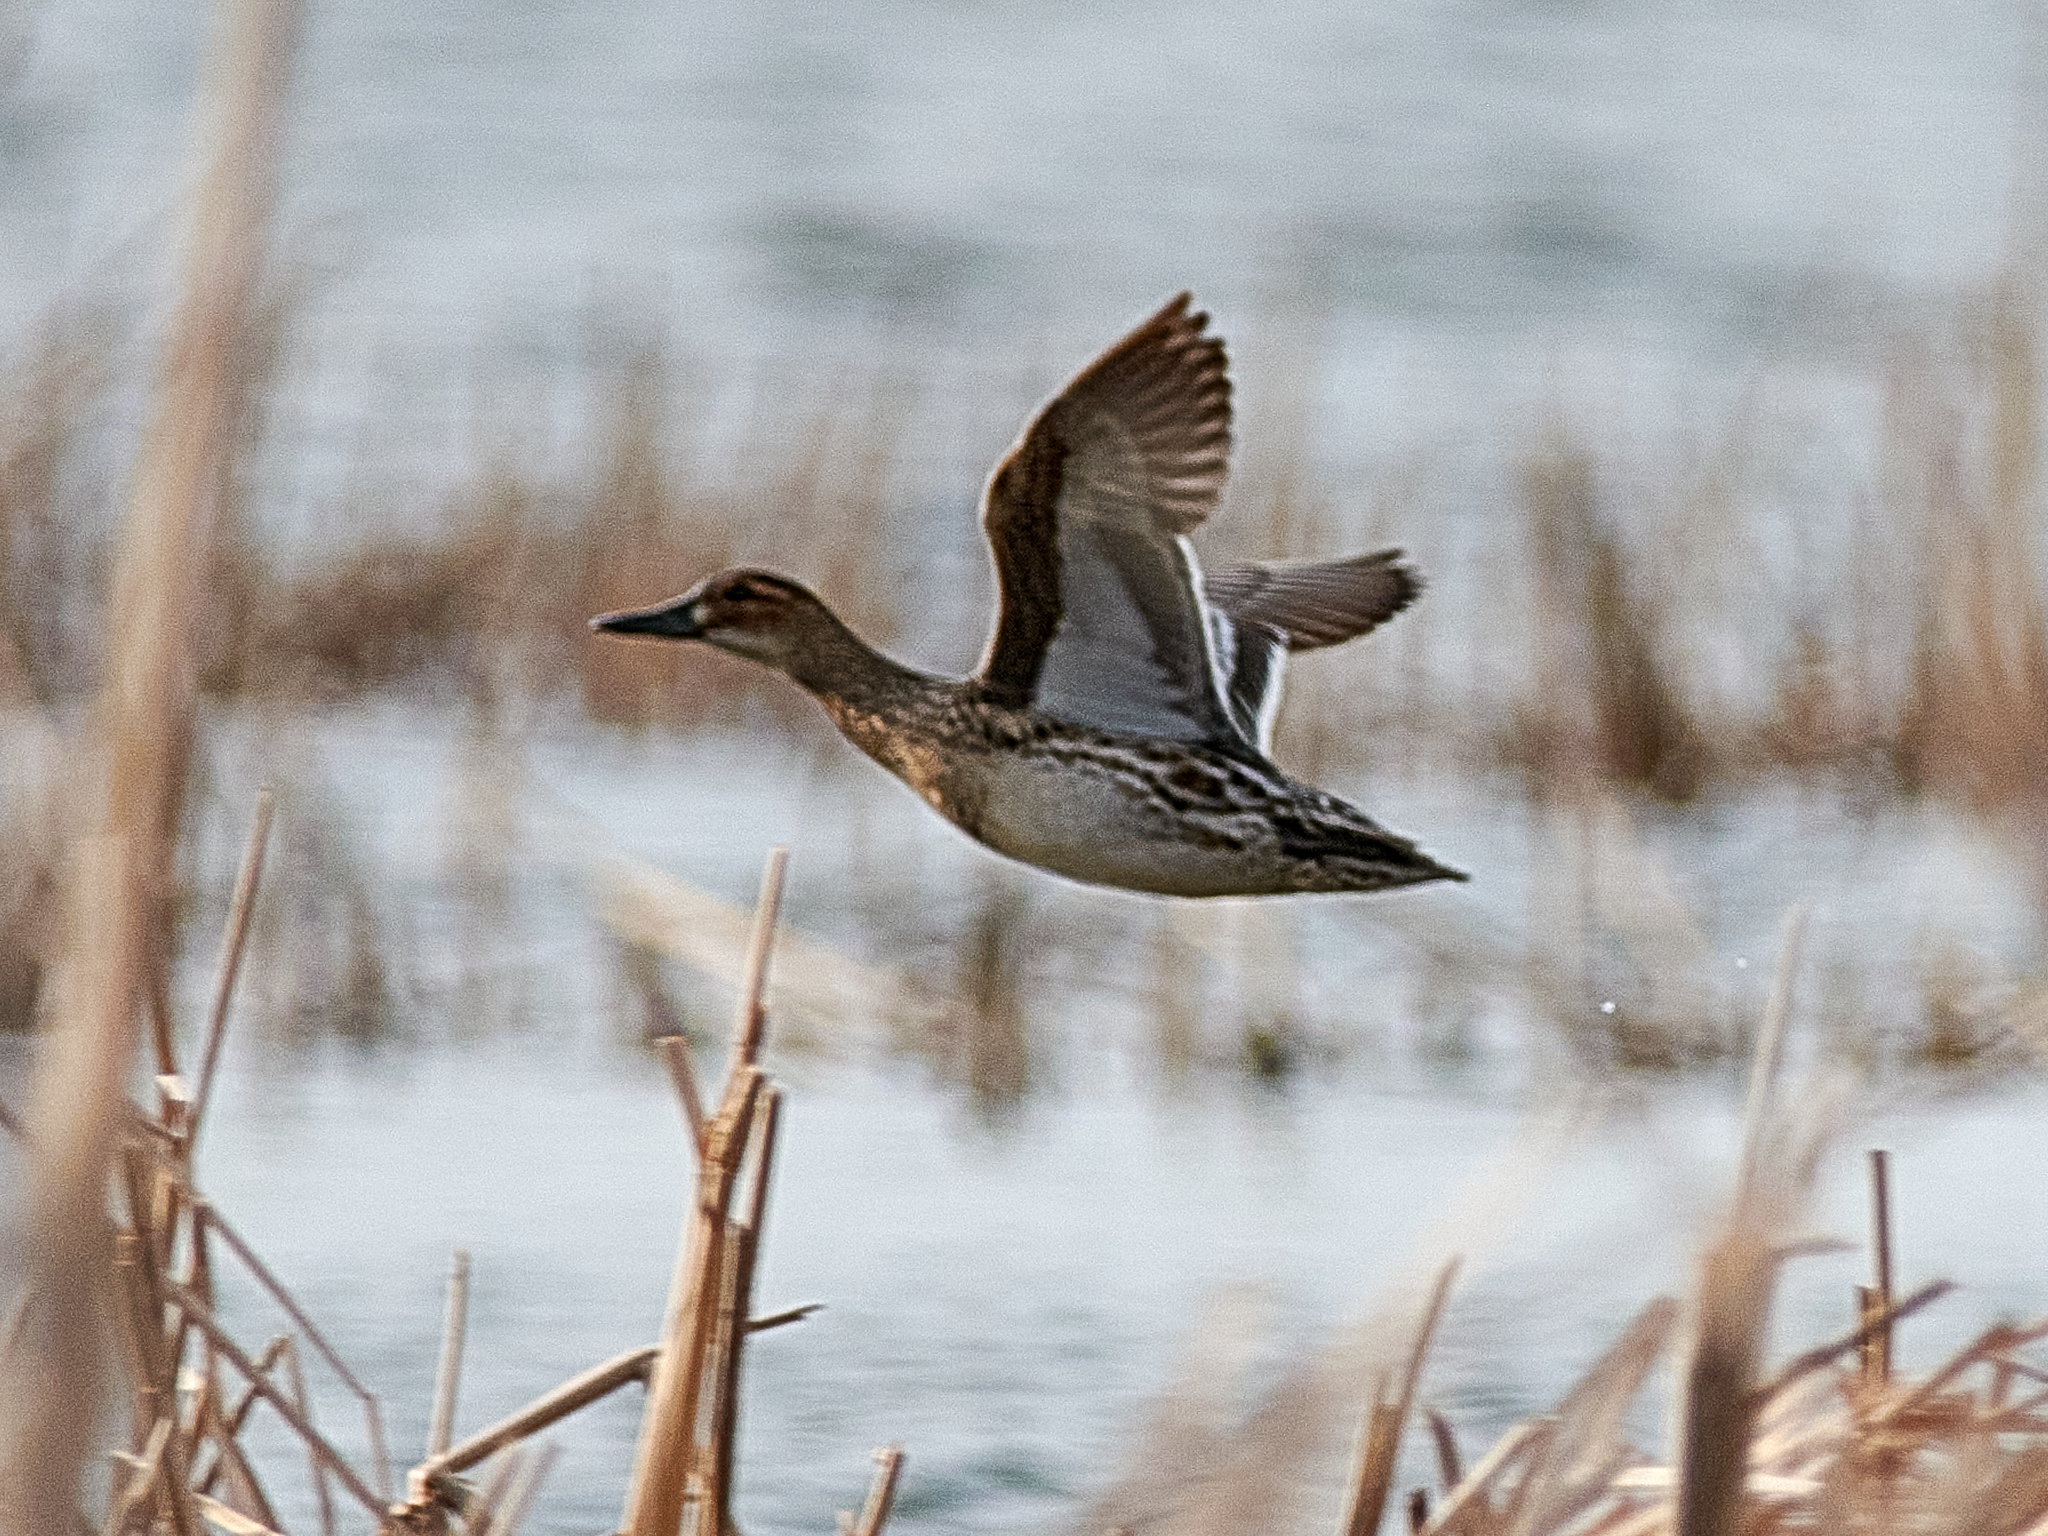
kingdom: Animalia
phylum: Chordata
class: Aves
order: Anseriformes
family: Anatidae
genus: Spatula
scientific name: Spatula querquedula
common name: Garganey
